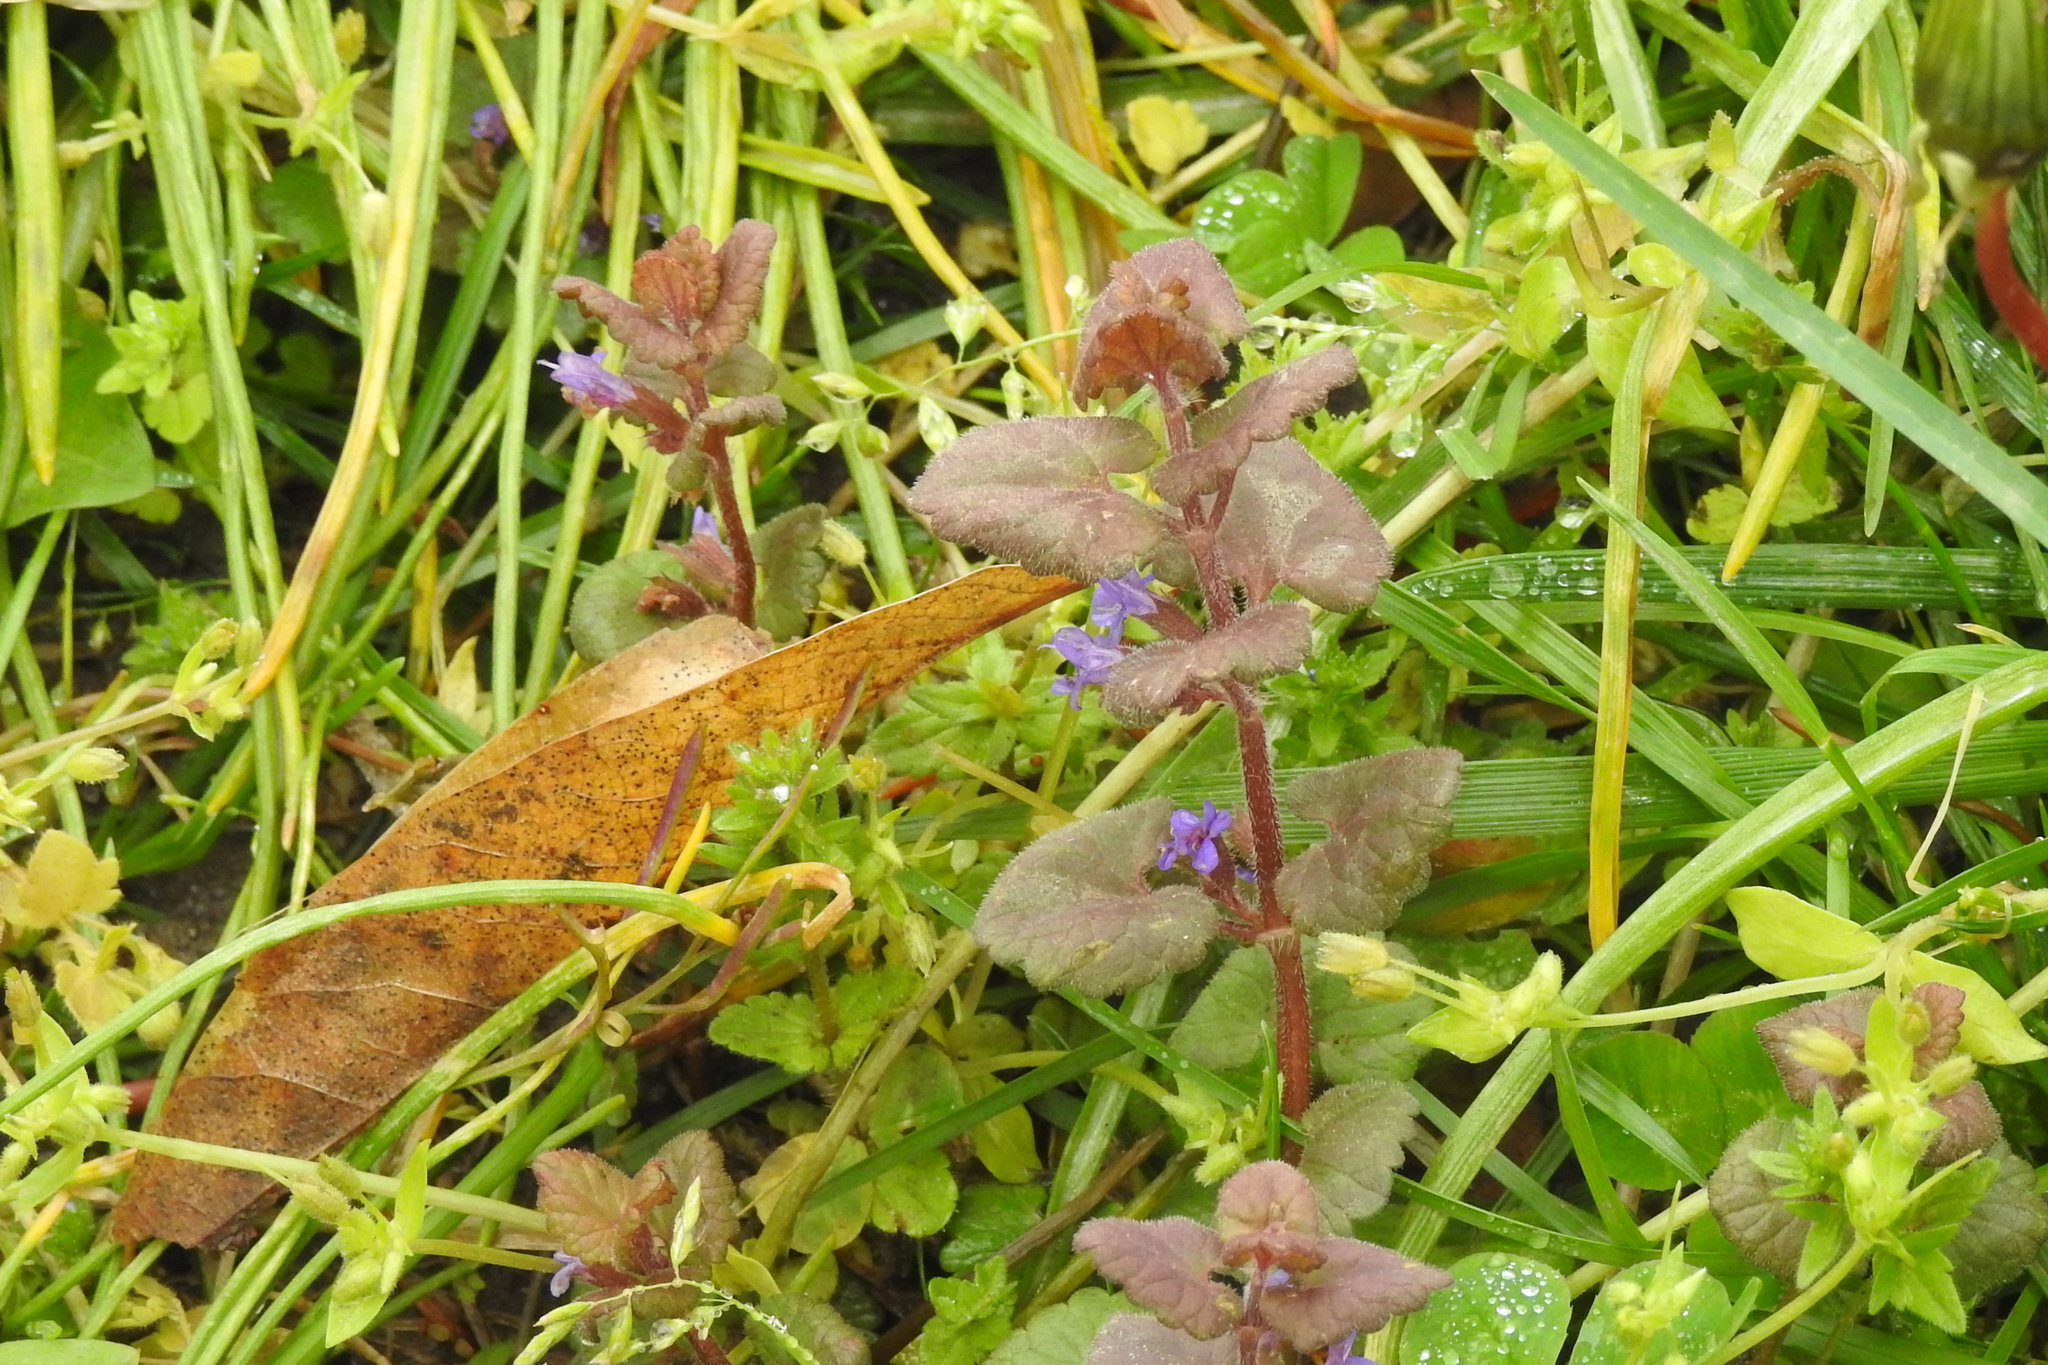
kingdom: Plantae
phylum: Tracheophyta
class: Magnoliopsida
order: Lamiales
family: Lamiaceae
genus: Glechoma
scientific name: Glechoma hederacea
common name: Ground ivy
